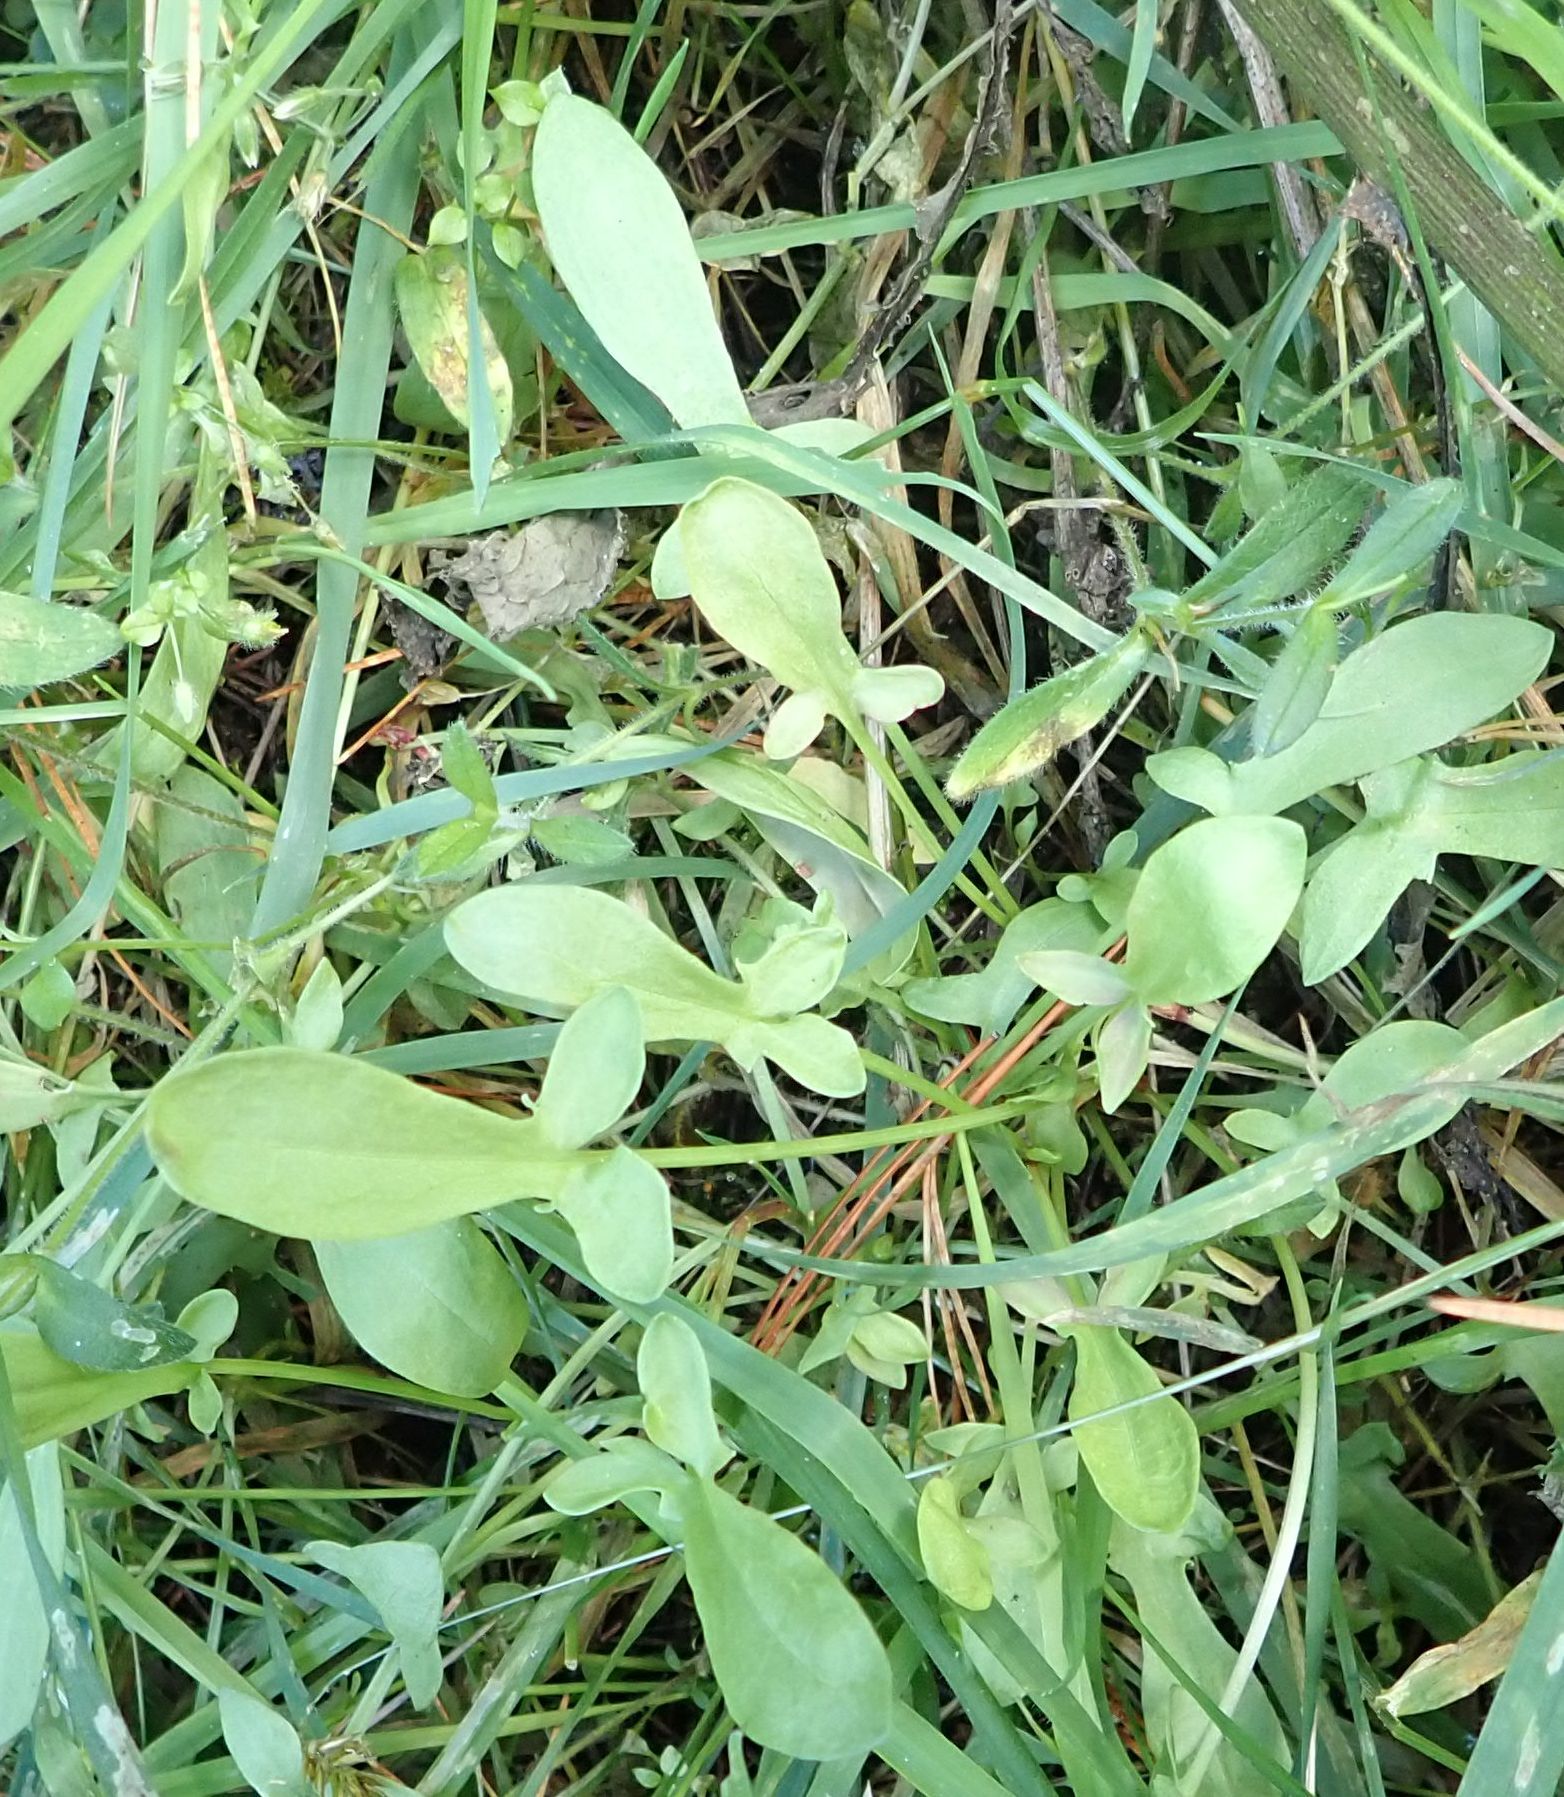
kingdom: Plantae
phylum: Tracheophyta
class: Magnoliopsida
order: Caryophyllales
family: Polygonaceae
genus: Rumex
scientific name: Rumex acetosella
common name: Common sheep sorrel
